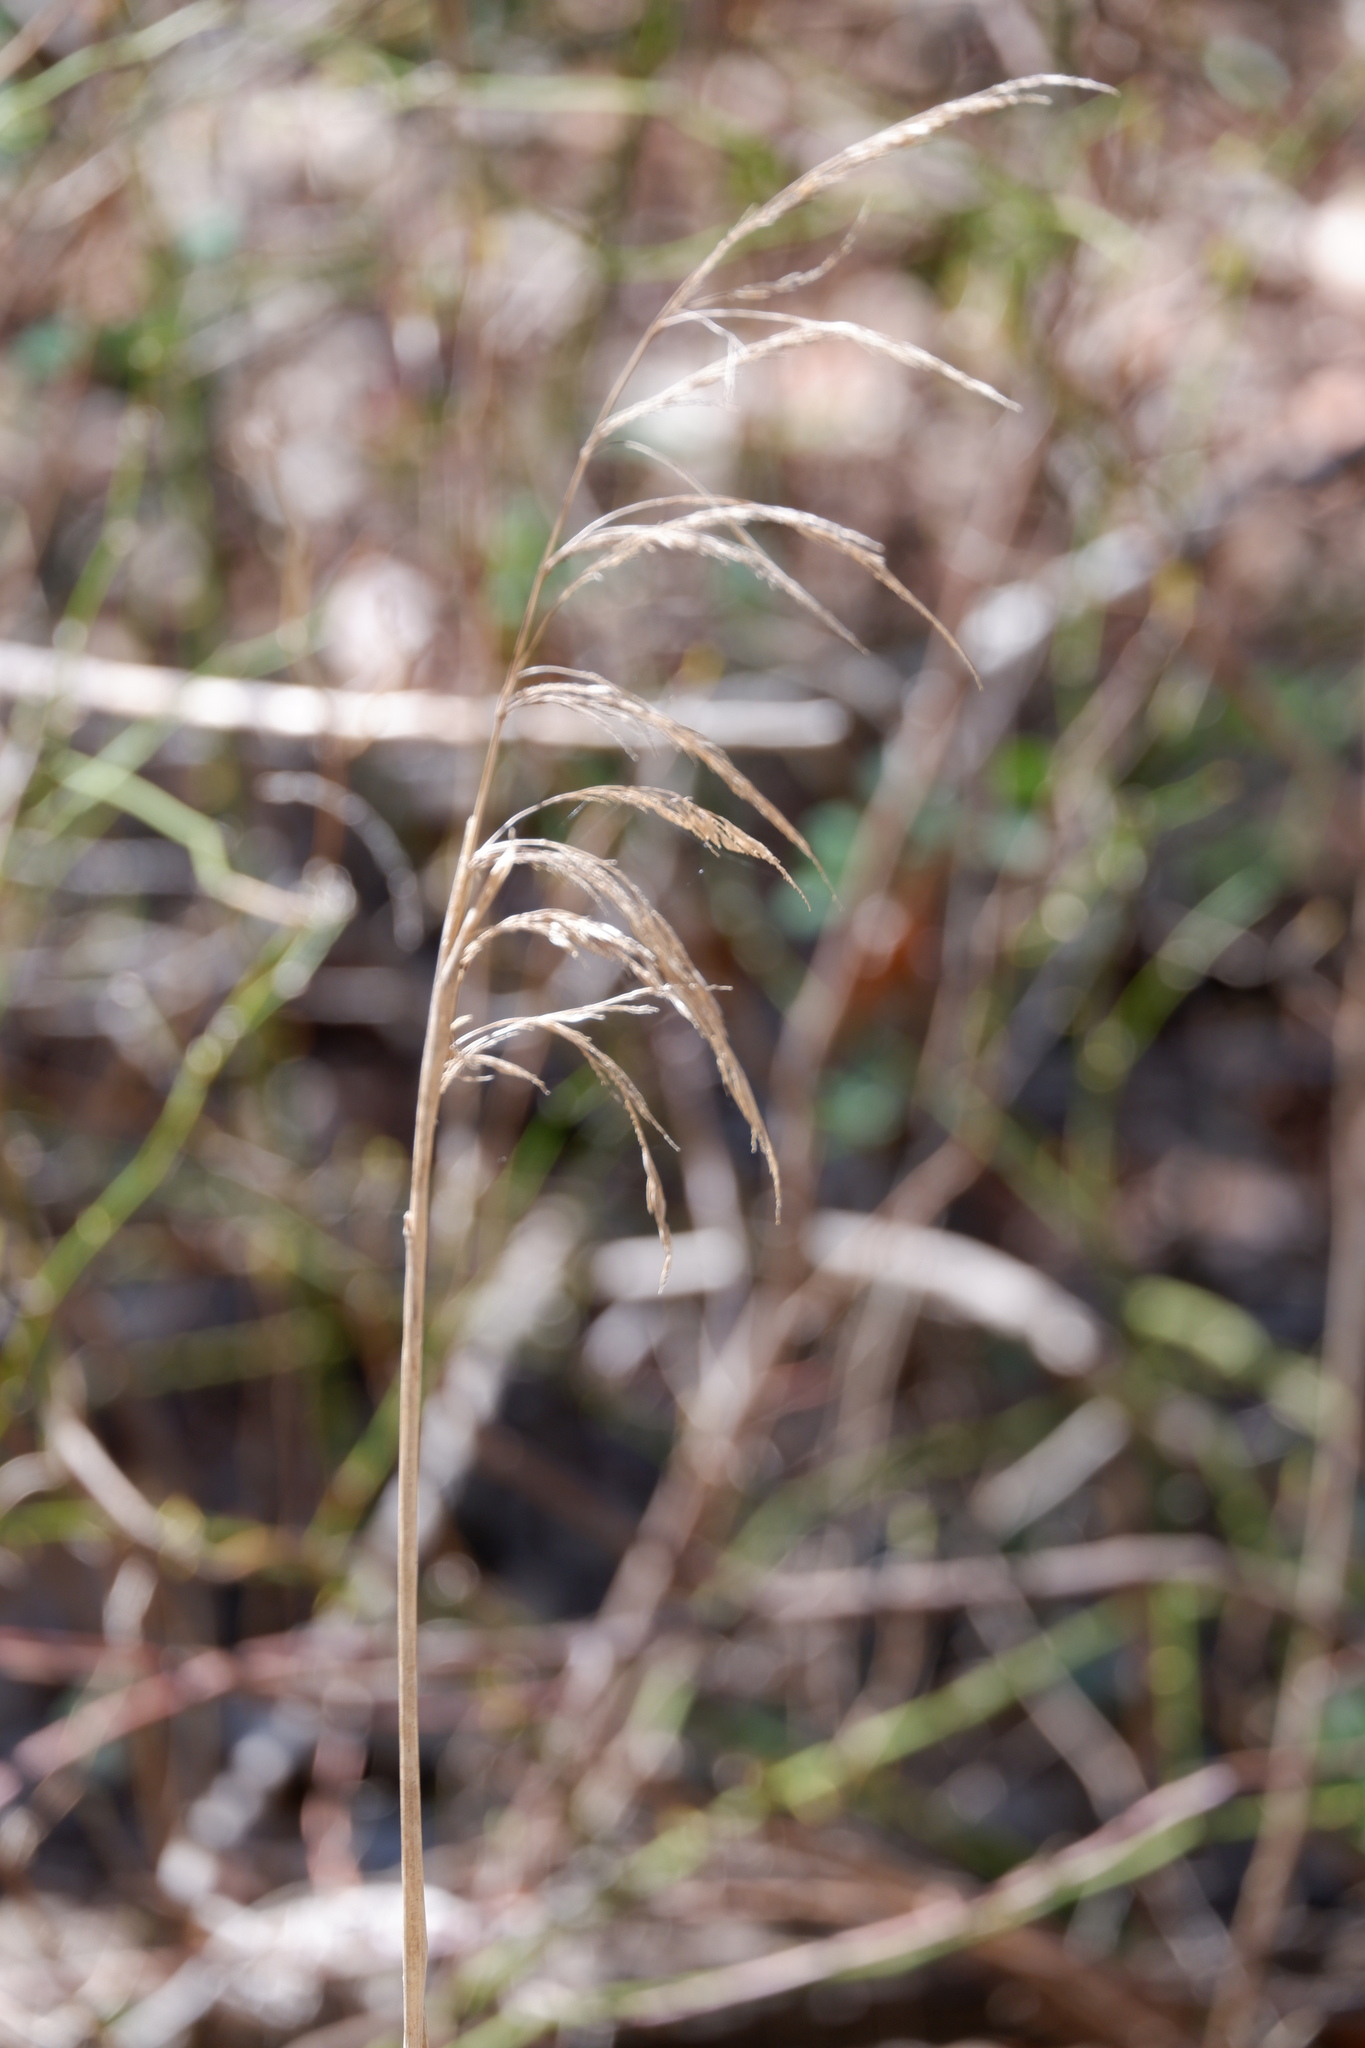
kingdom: Plantae
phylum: Tracheophyta
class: Liliopsida
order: Poales
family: Poaceae
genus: Cinna
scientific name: Cinna arundinacea
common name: Stout woodreed
